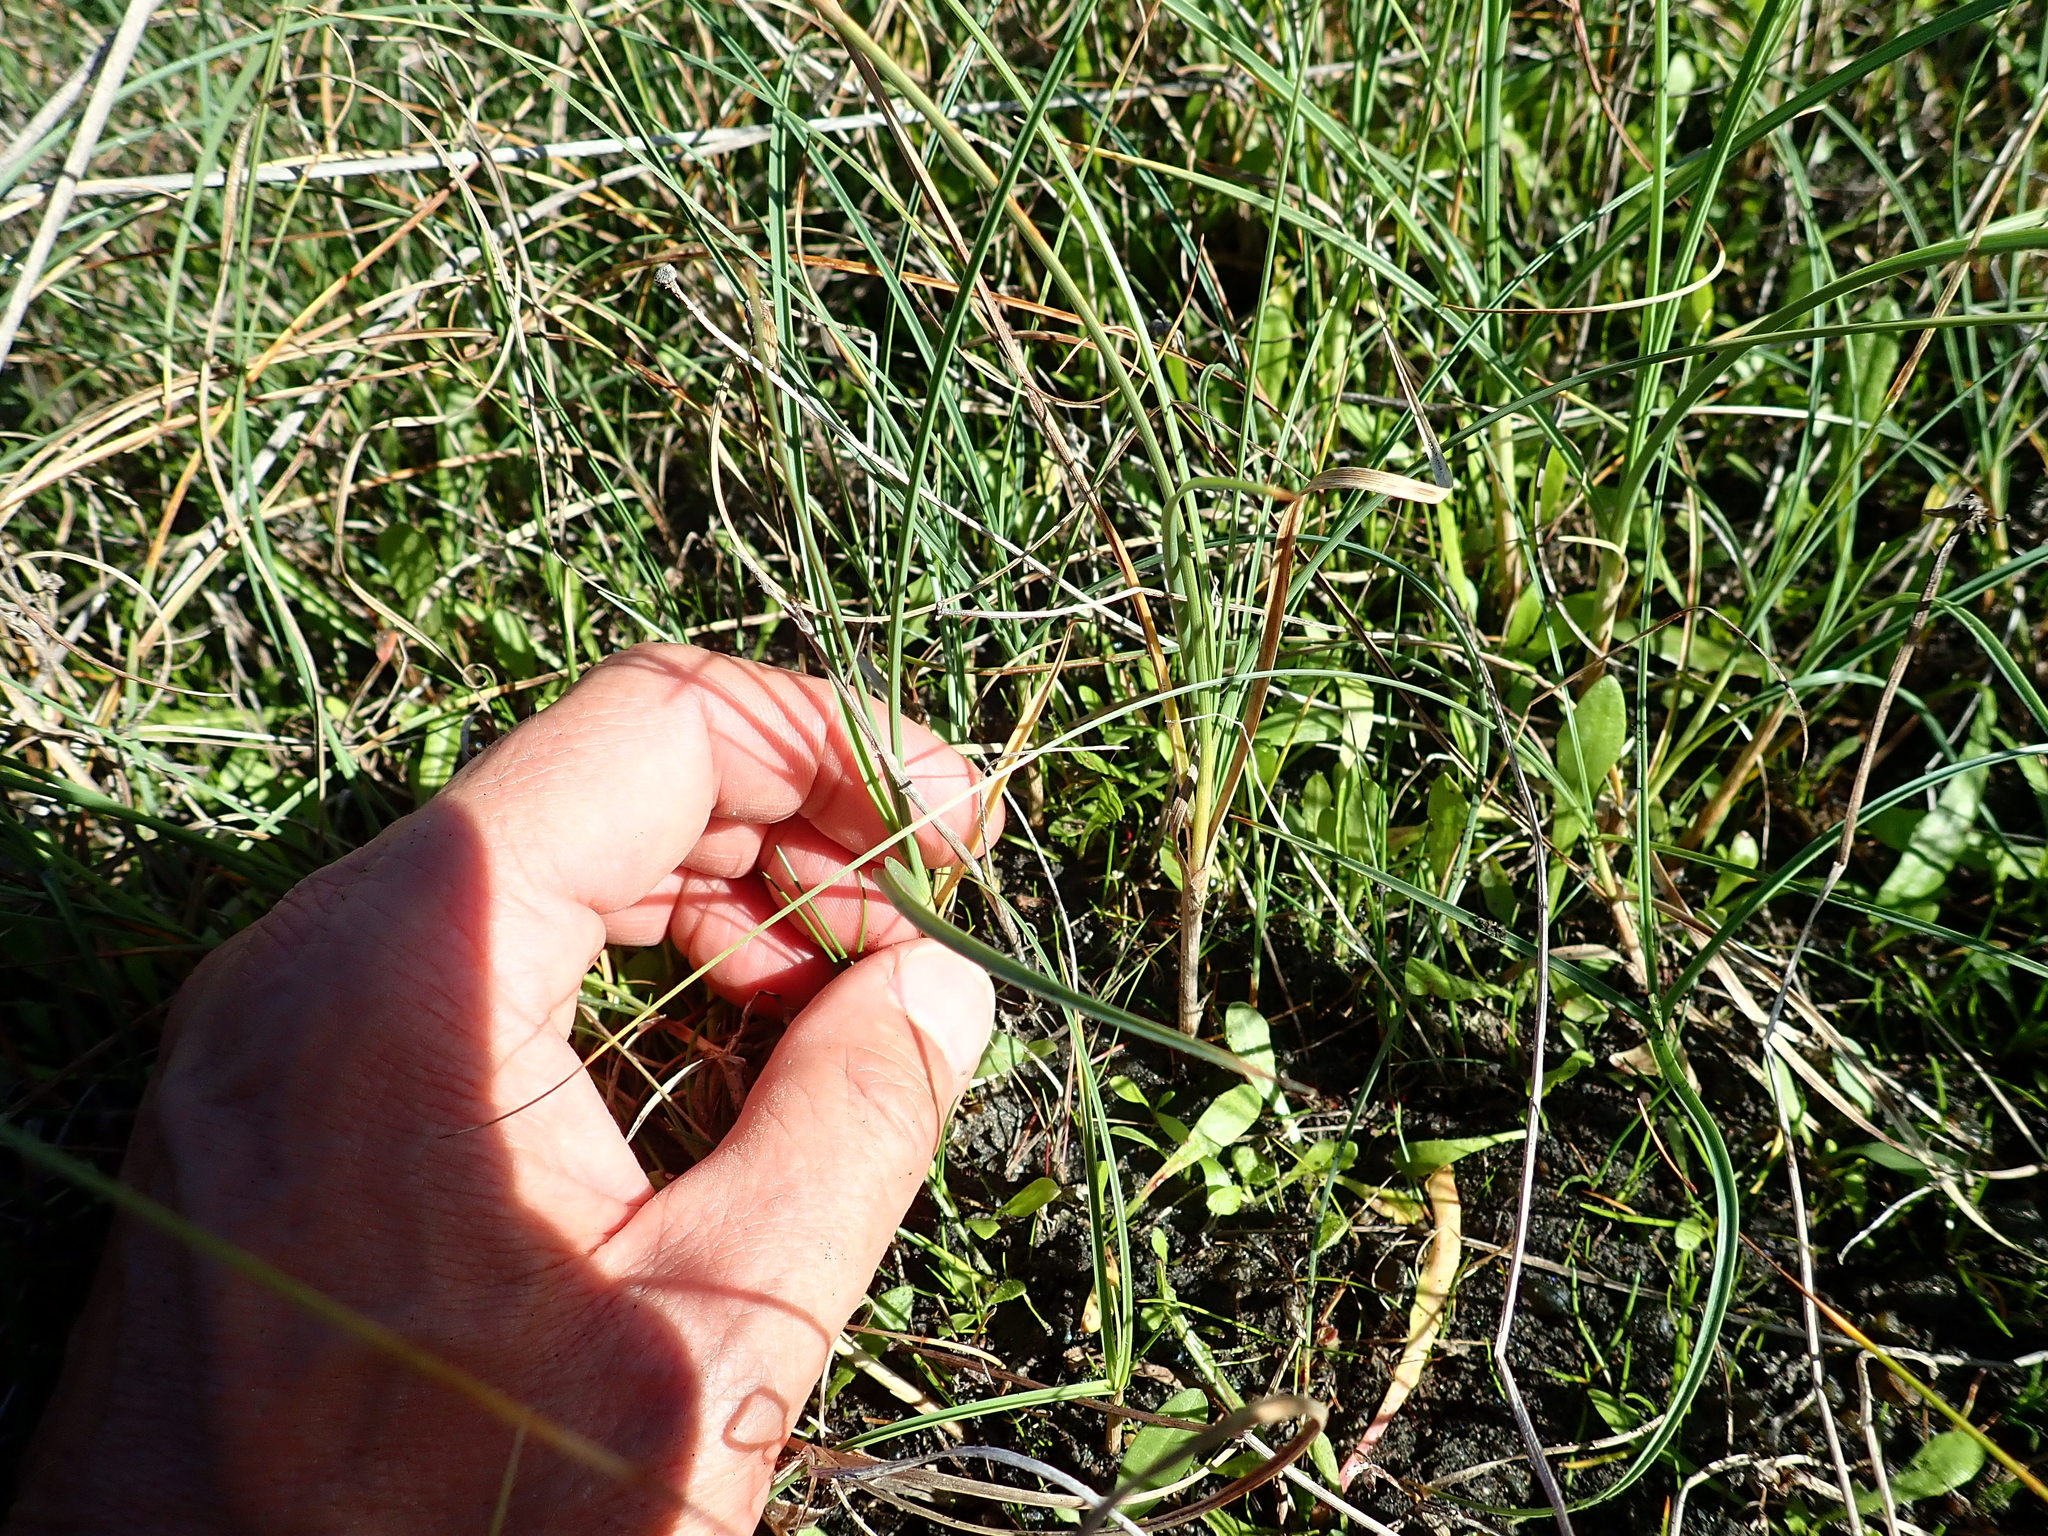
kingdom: Plantae
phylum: Tracheophyta
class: Liliopsida
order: Poales
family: Cyperaceae
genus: Carex
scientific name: Carex pumila
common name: Dwarf sedge
